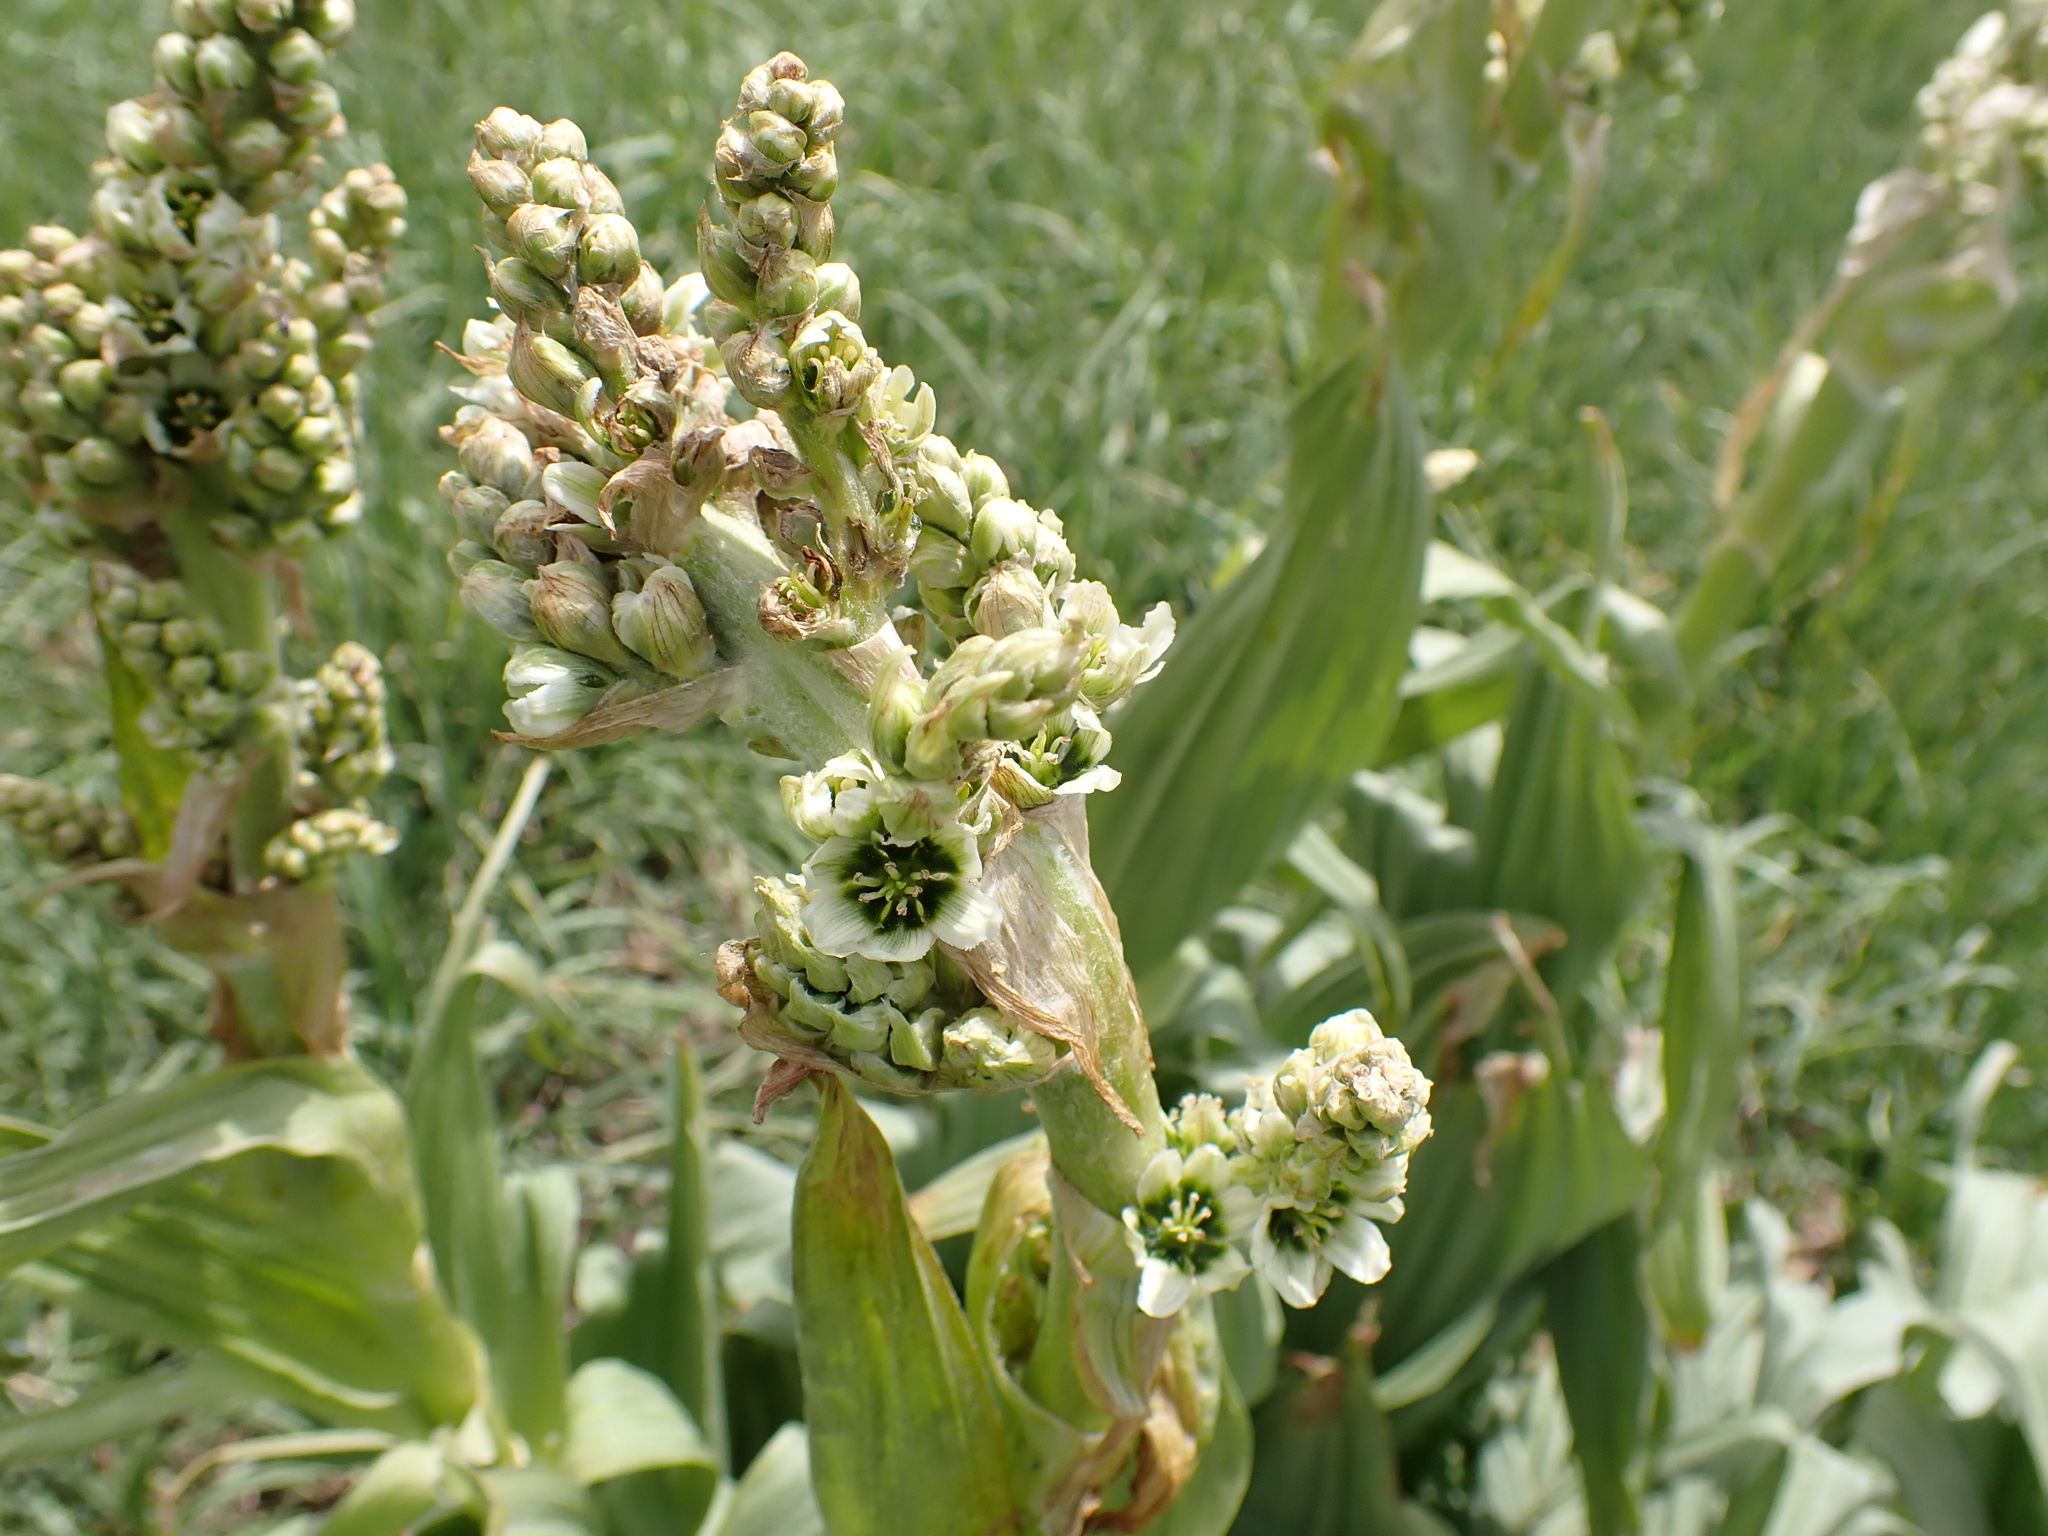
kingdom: Plantae
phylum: Tracheophyta
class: Liliopsida
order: Liliales
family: Melanthiaceae
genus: Veratrum
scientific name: Veratrum californicum
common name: California veratrum
